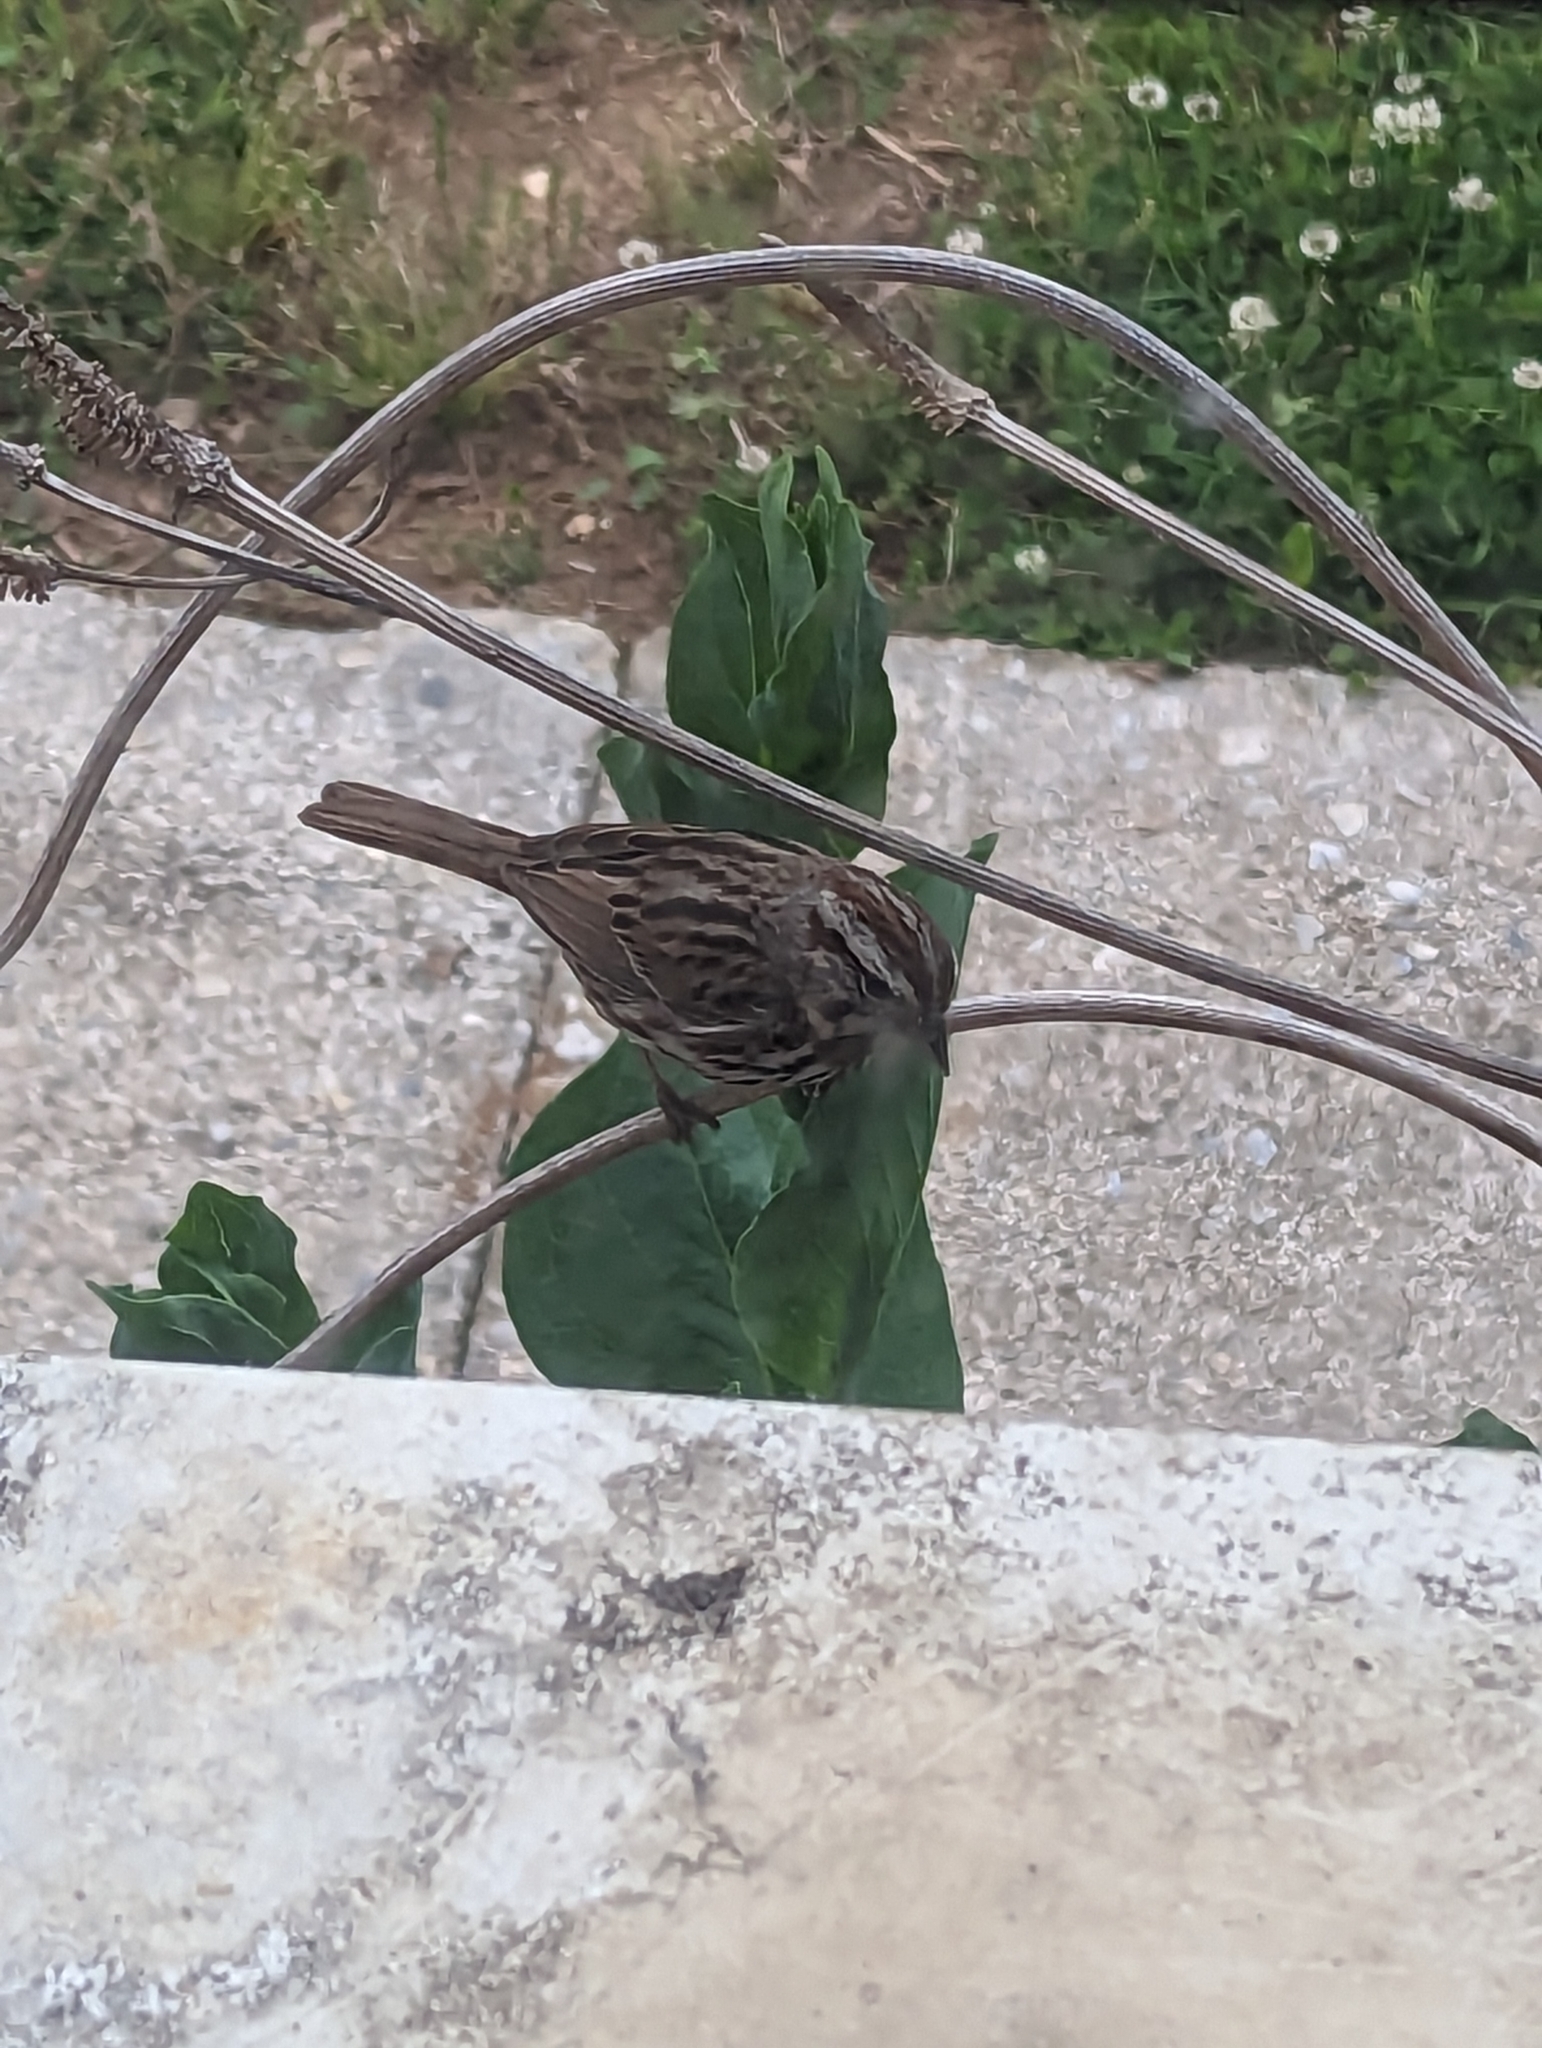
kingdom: Animalia
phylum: Chordata
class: Aves
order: Passeriformes
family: Passerellidae
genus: Melospiza
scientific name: Melospiza melodia
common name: Song sparrow
